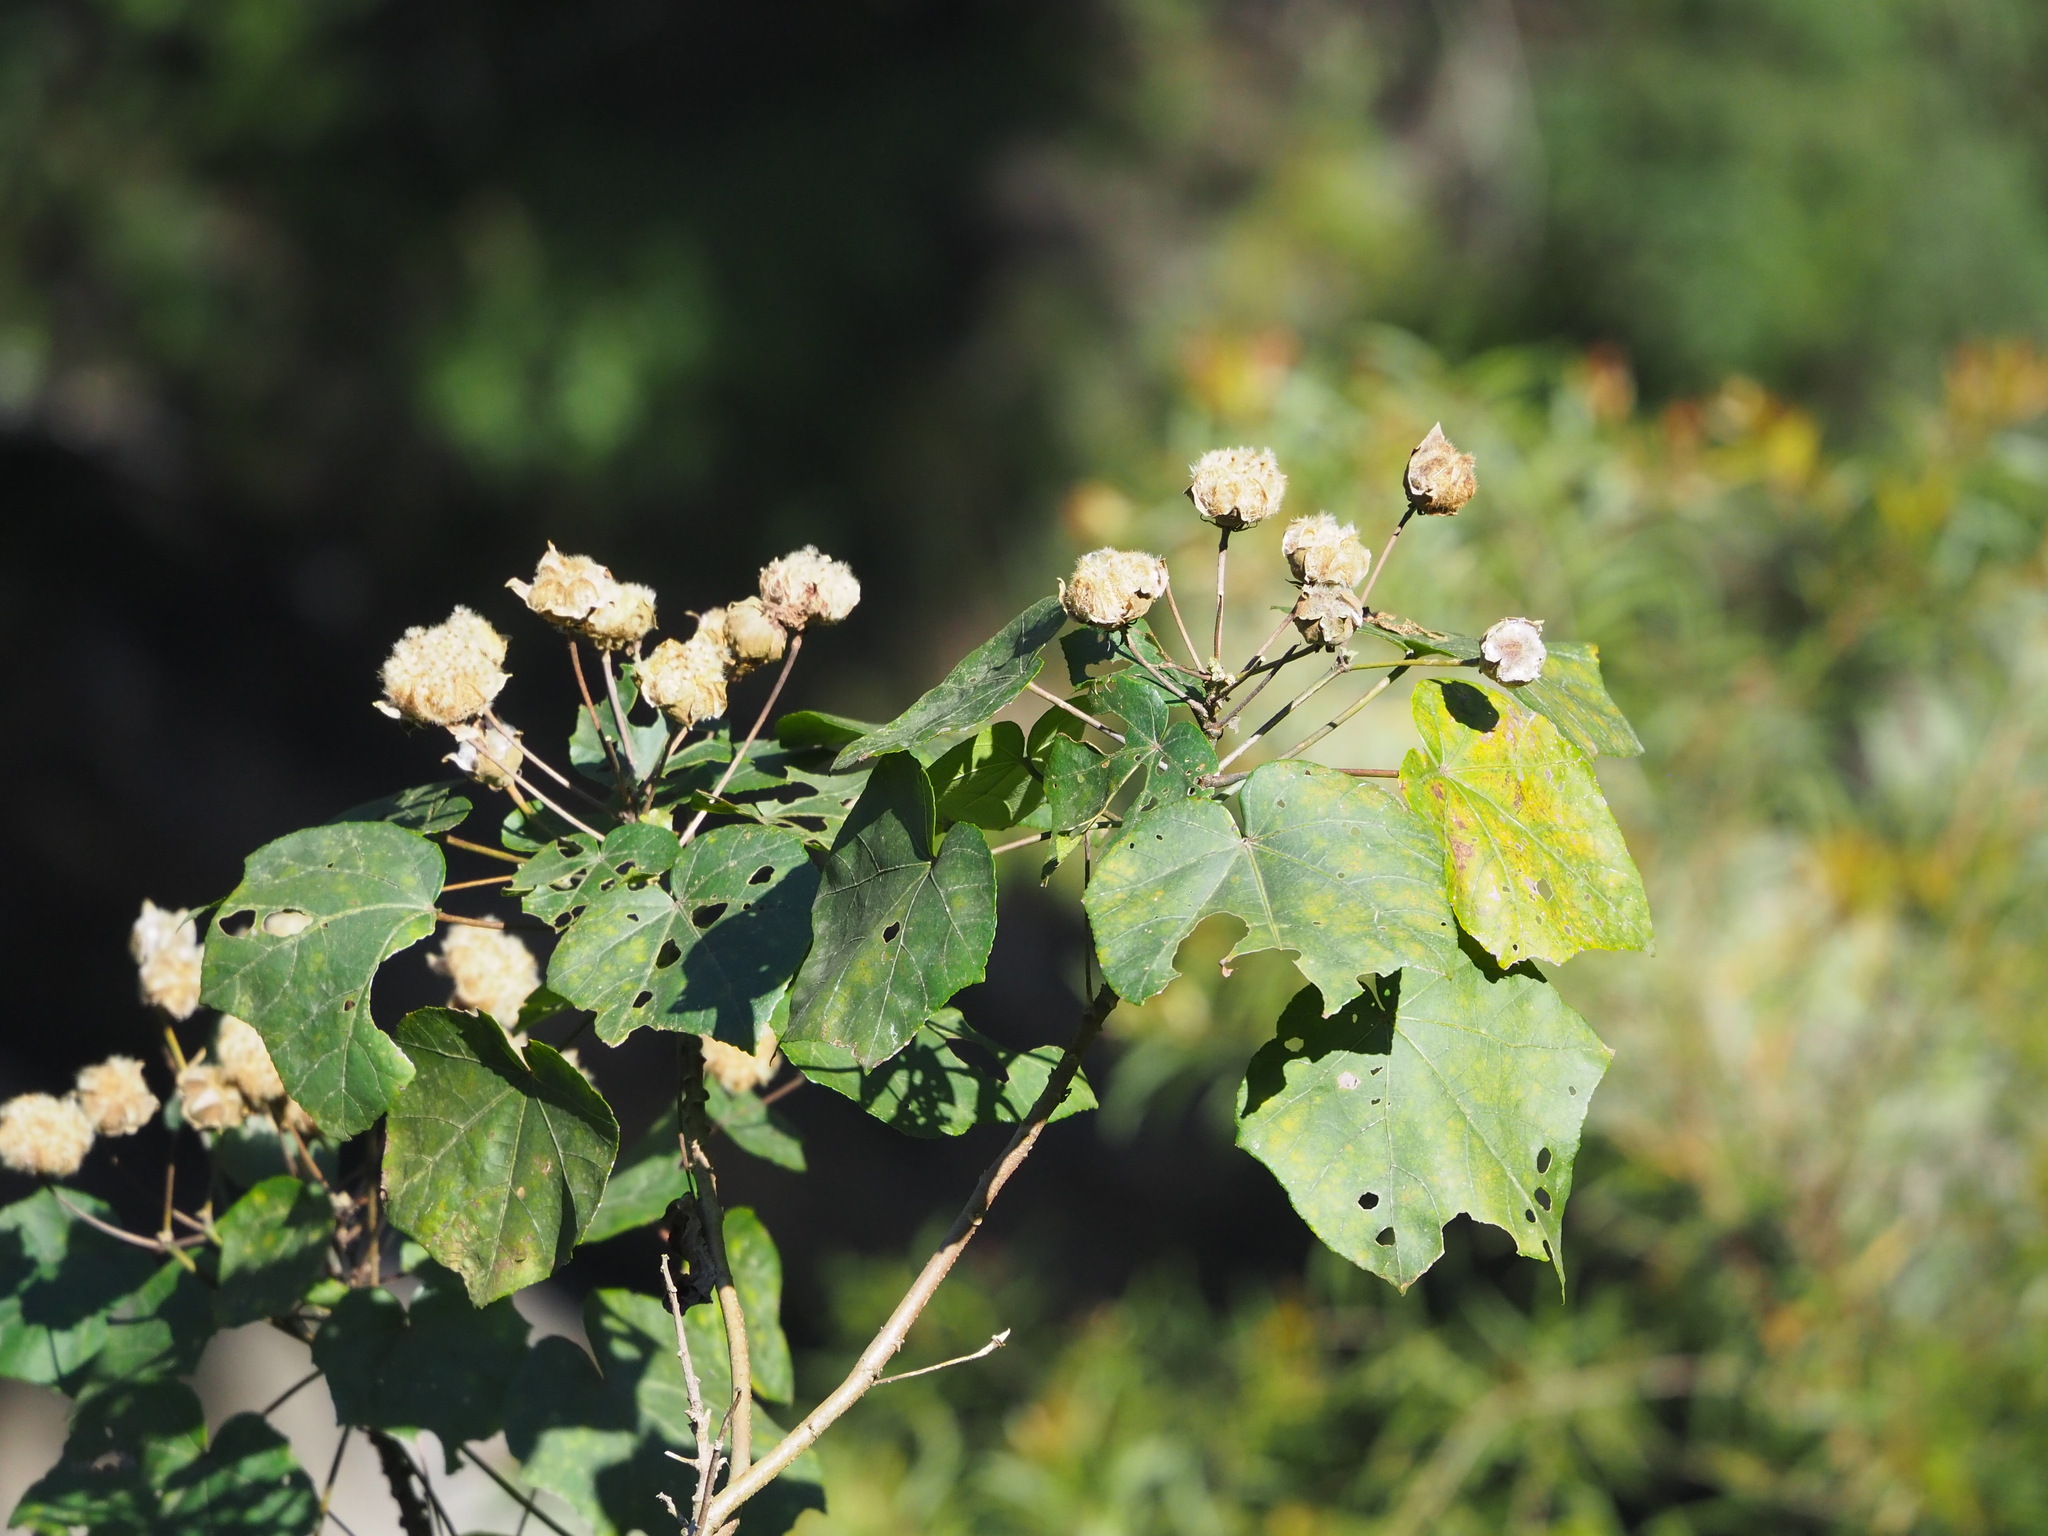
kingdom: Plantae
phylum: Tracheophyta
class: Magnoliopsida
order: Malvales
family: Malvaceae
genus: Hibiscus
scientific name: Hibiscus taiwanensis
